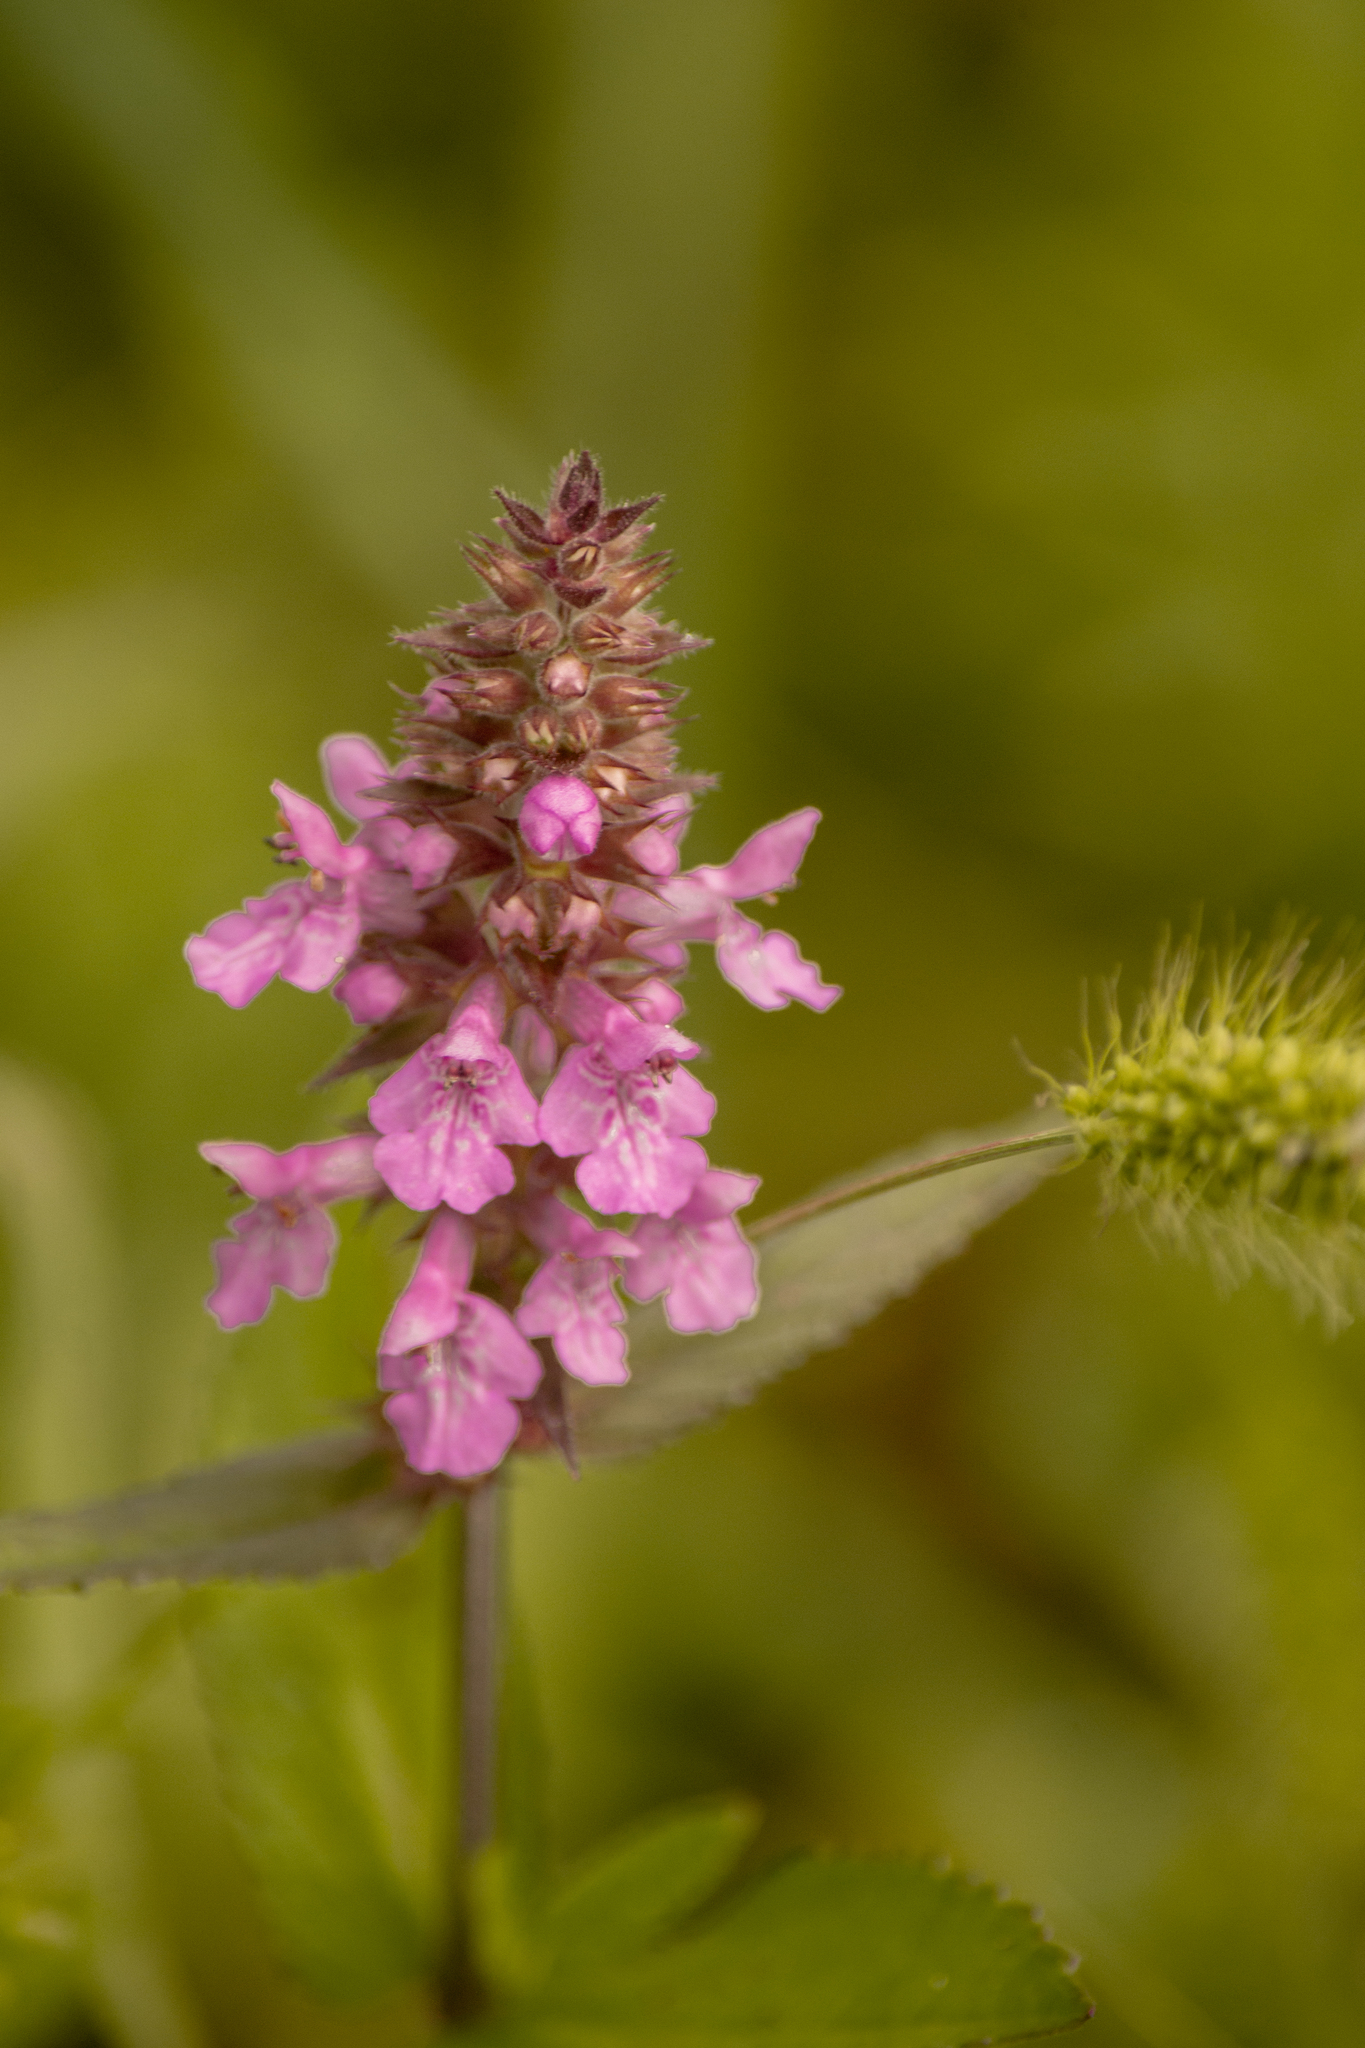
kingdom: Plantae
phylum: Tracheophyta
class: Magnoliopsida
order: Lamiales
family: Lamiaceae
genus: Stachys
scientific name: Stachys palustris
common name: Marsh woundwort
